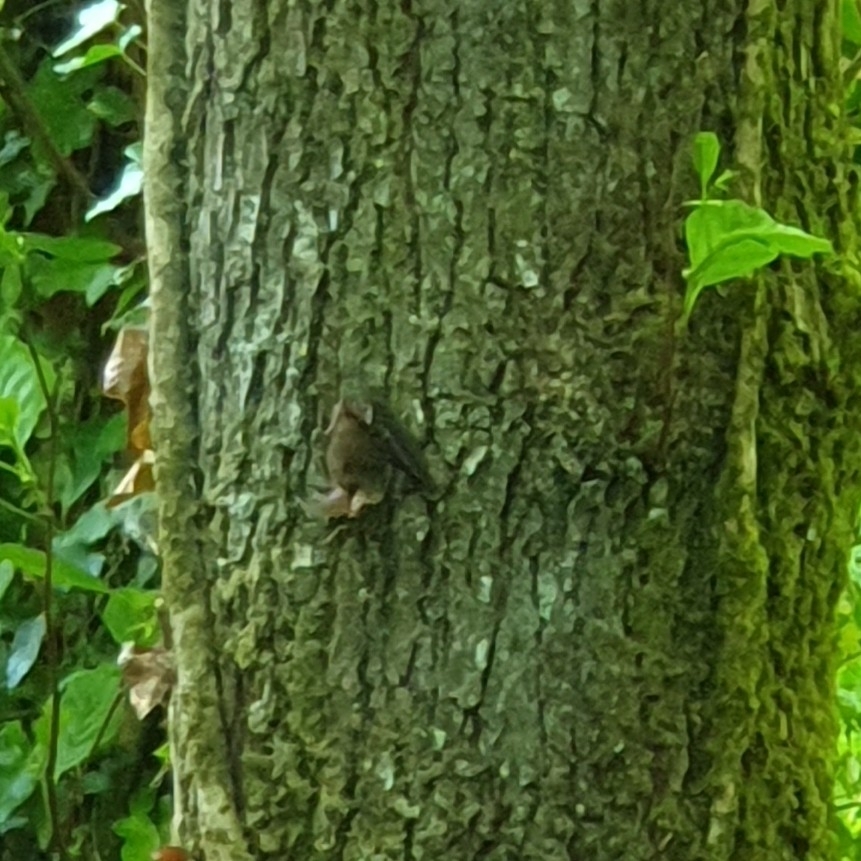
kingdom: Animalia
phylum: Chordata
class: Mammalia
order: Chiroptera
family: Vespertilionidae
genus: Plecotus
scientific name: Plecotus auritus
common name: Brown long-eared bat
